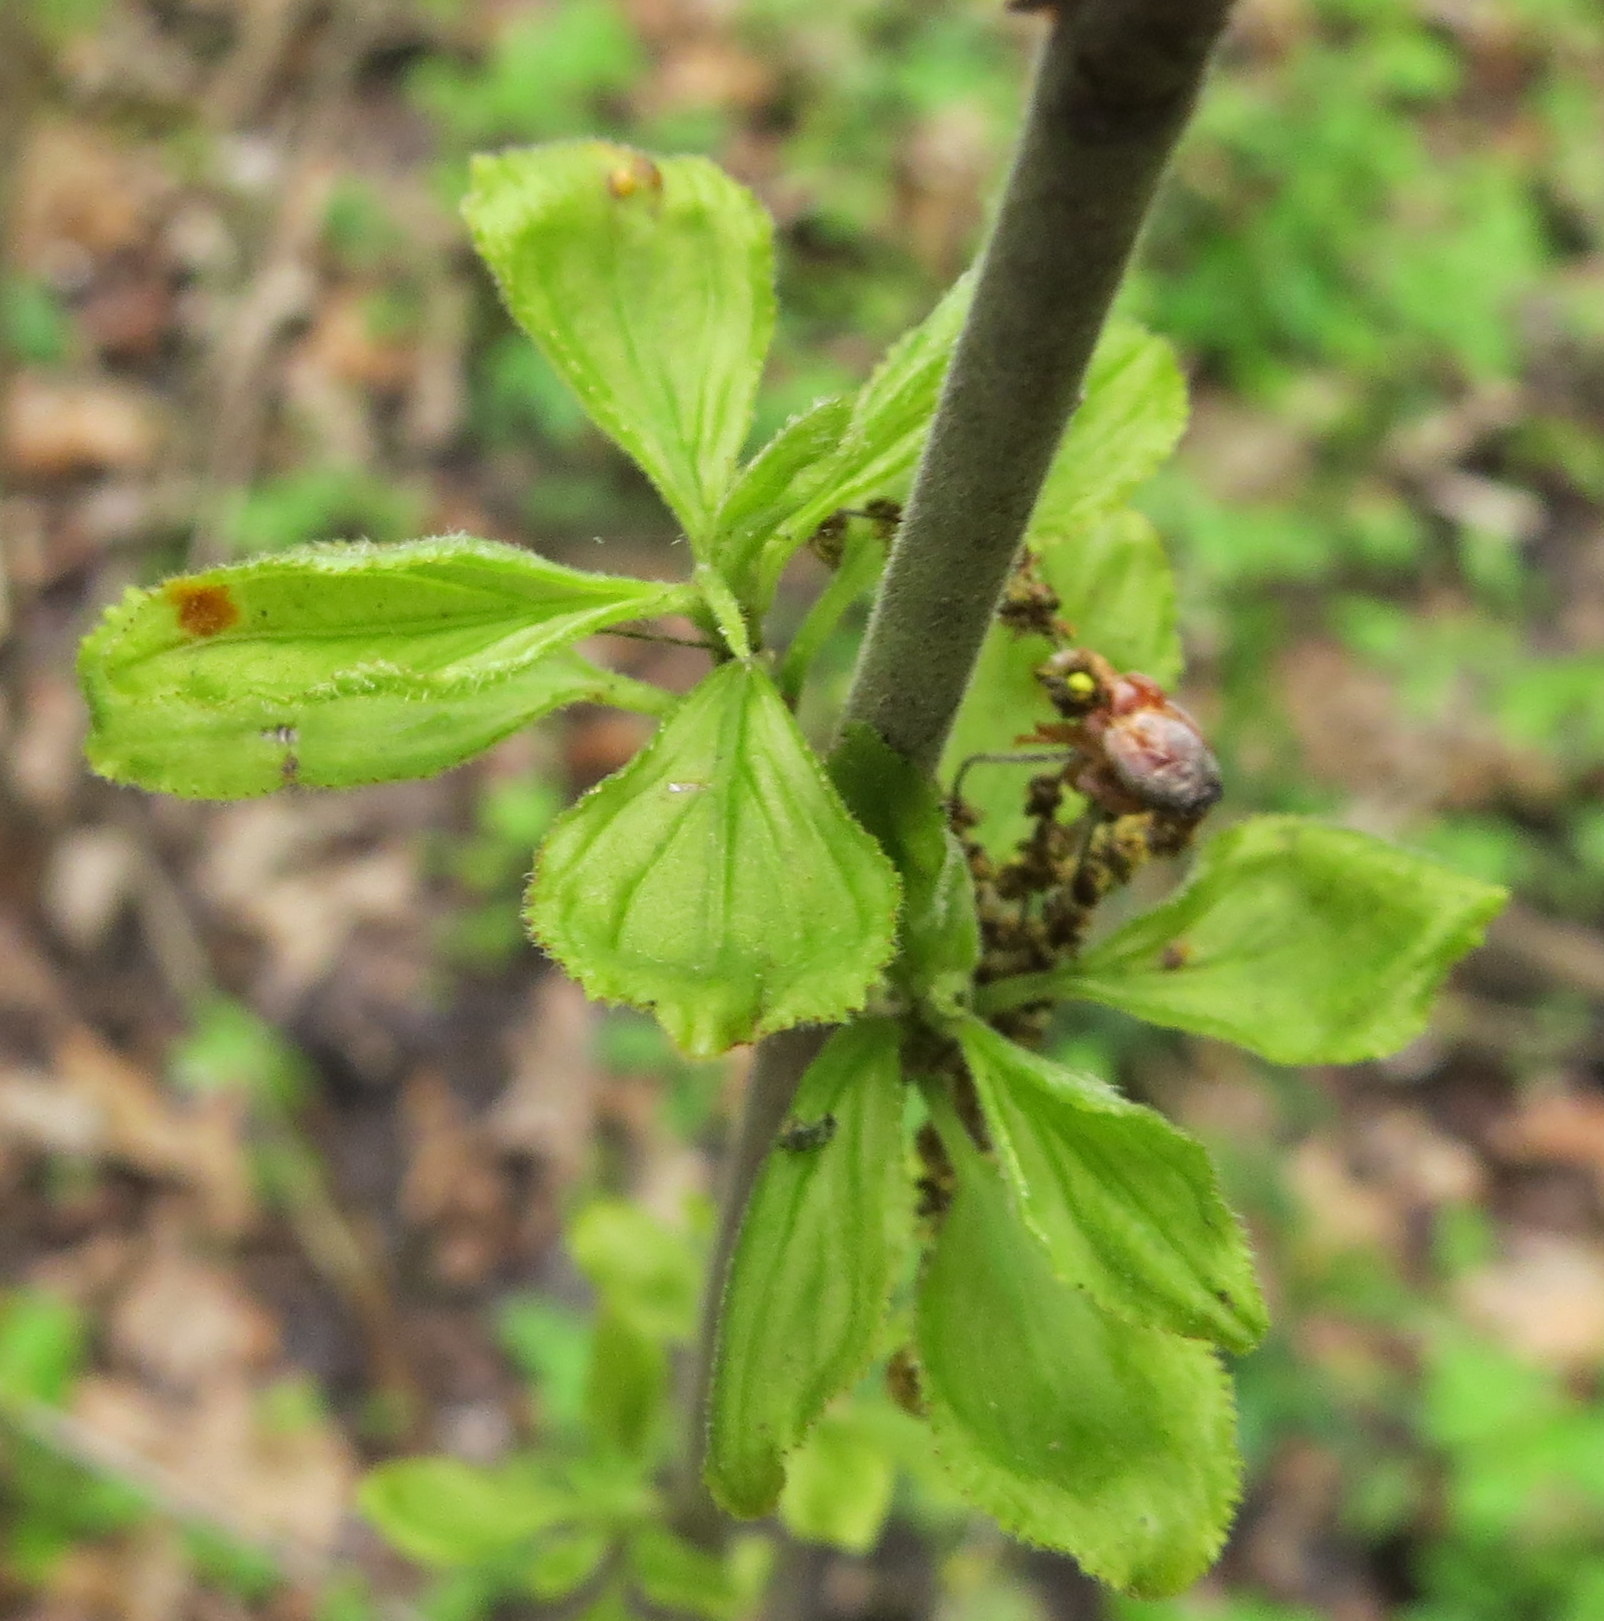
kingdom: Plantae
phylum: Tracheophyta
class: Magnoliopsida
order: Rosales
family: Rhamnaceae
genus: Rhamnus
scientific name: Rhamnus cathartica
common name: Common buckthorn
